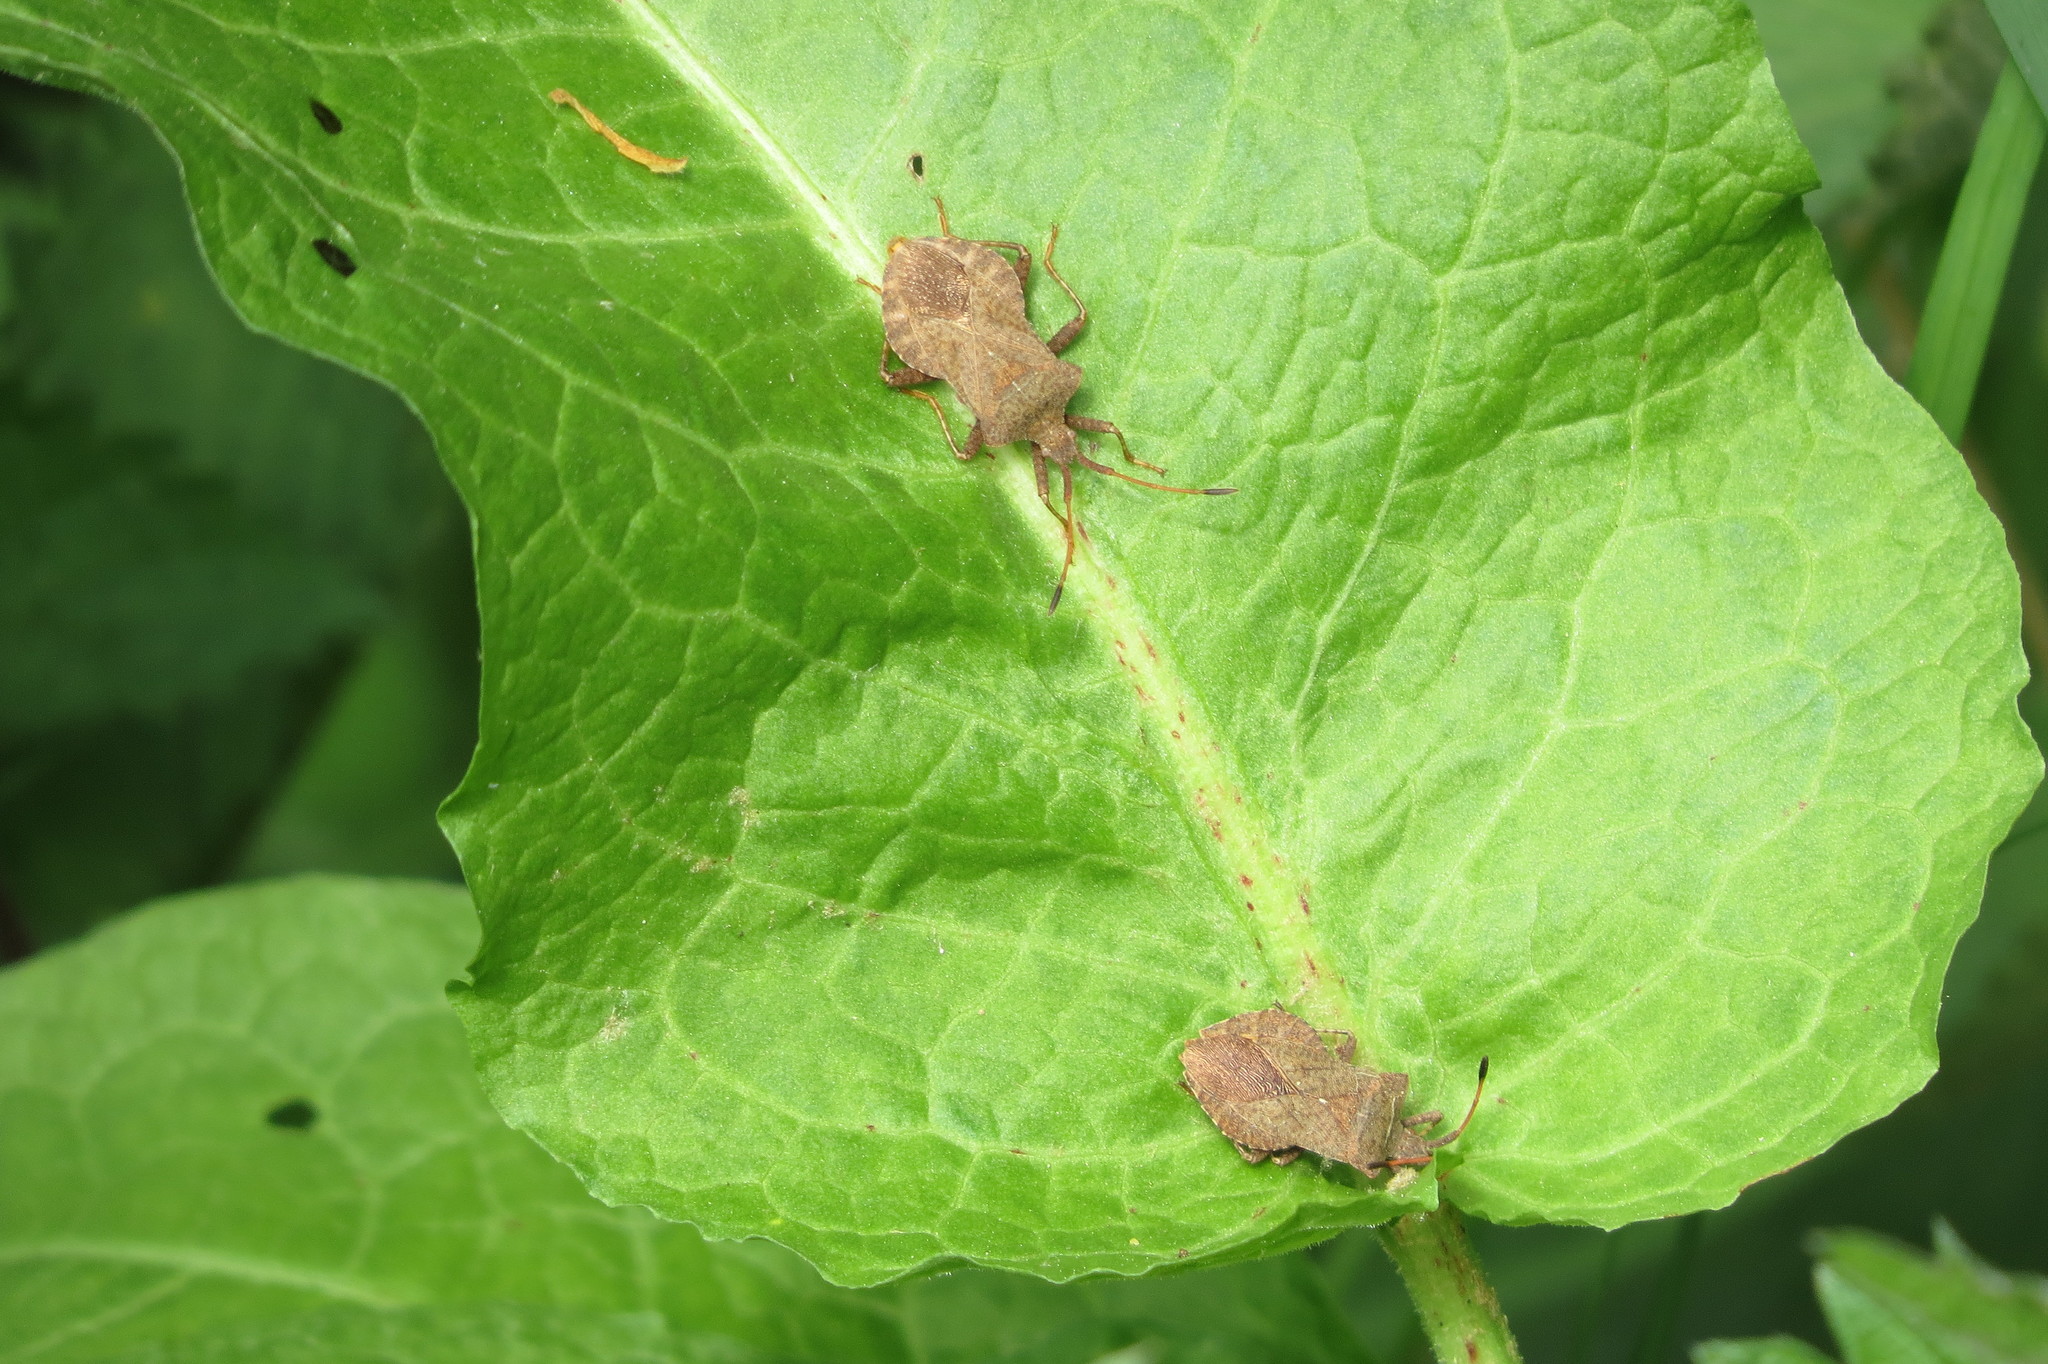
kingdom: Animalia
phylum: Arthropoda
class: Insecta
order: Hemiptera
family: Coreidae
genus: Coreus
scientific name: Coreus marginatus
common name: Dock bug
